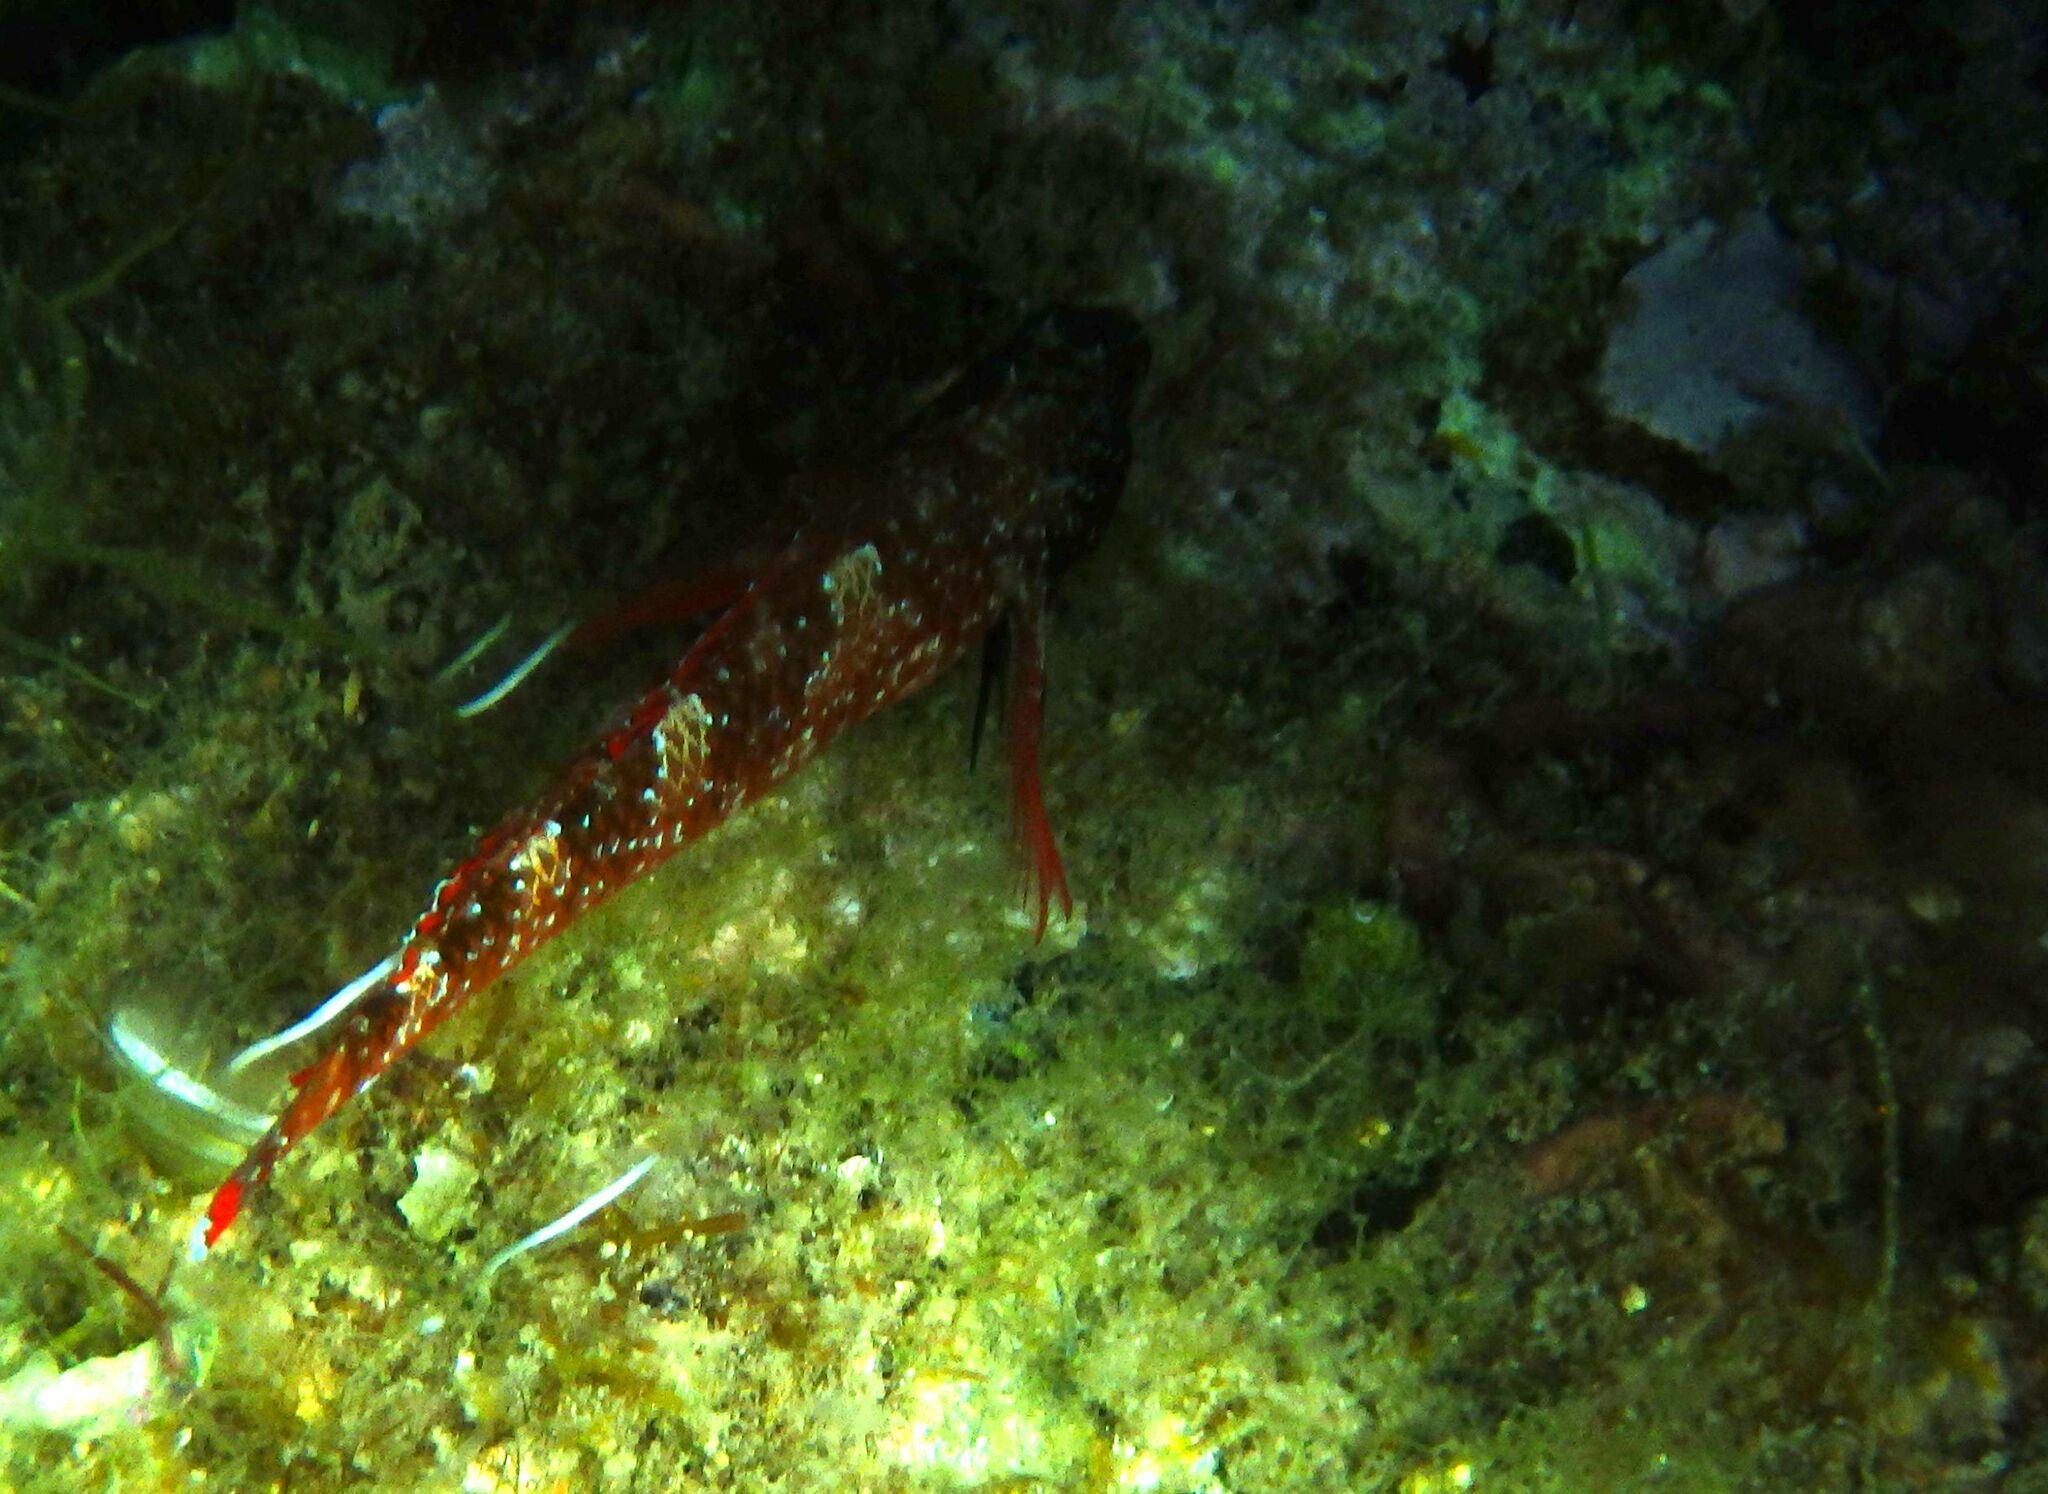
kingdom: Animalia
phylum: Chordata
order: Perciformes
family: Tripterygiidae
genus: Tripterygion
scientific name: Tripterygion tripteronotum
